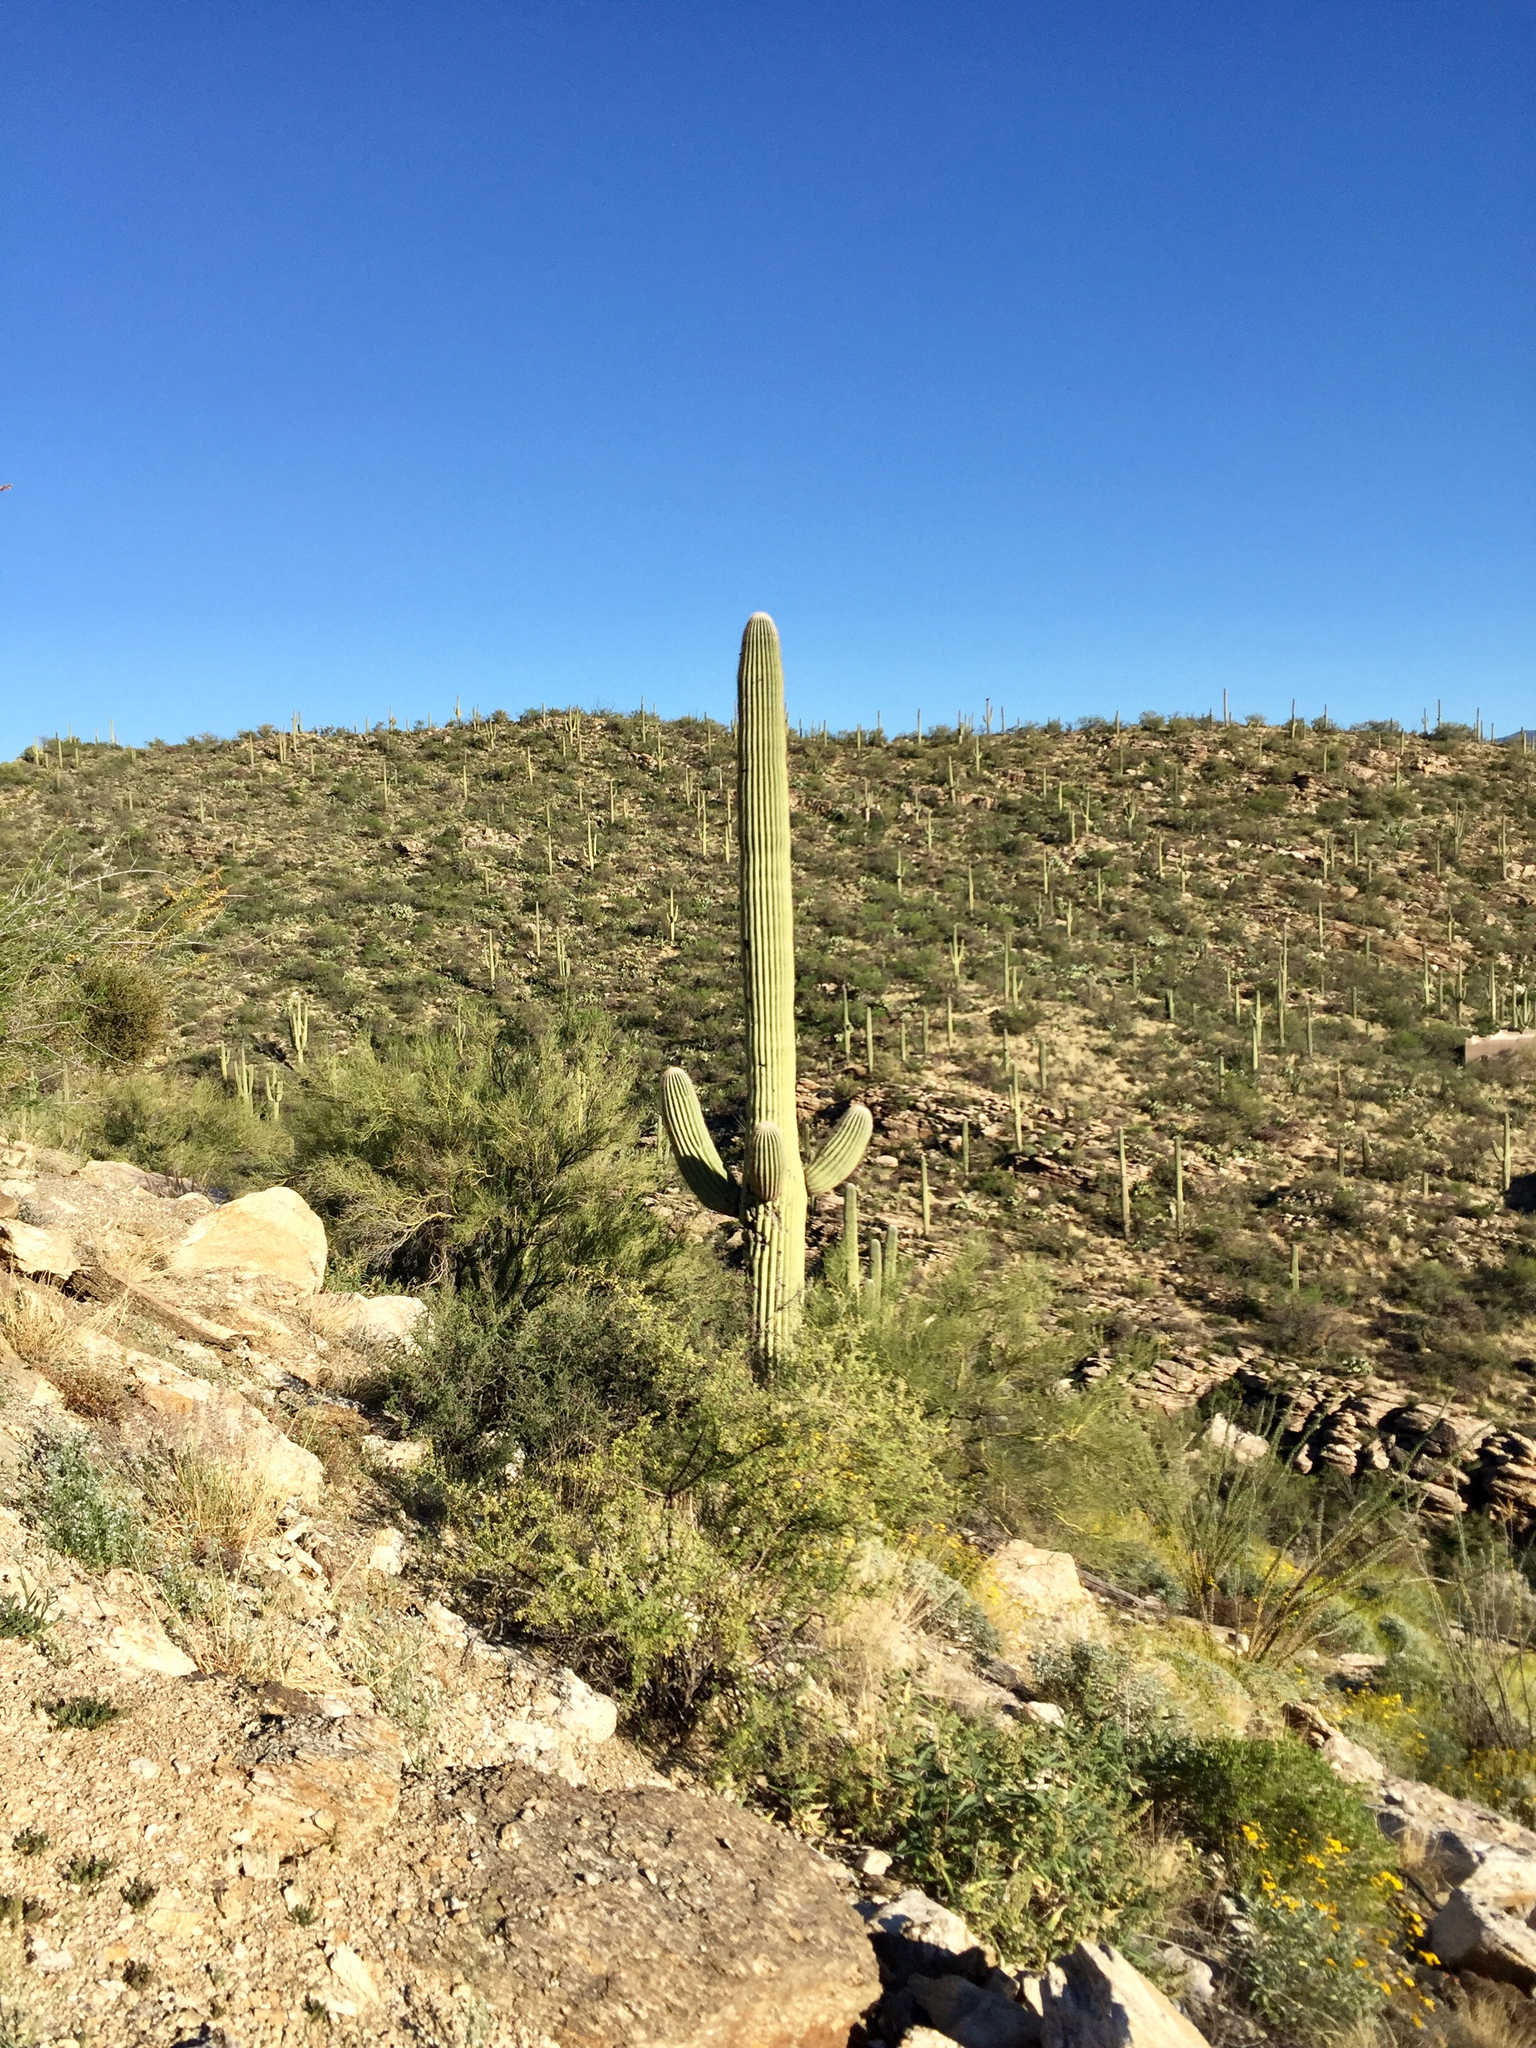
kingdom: Plantae
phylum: Tracheophyta
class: Magnoliopsida
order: Caryophyllales
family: Cactaceae
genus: Carnegiea
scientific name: Carnegiea gigantea
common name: Saguaro
